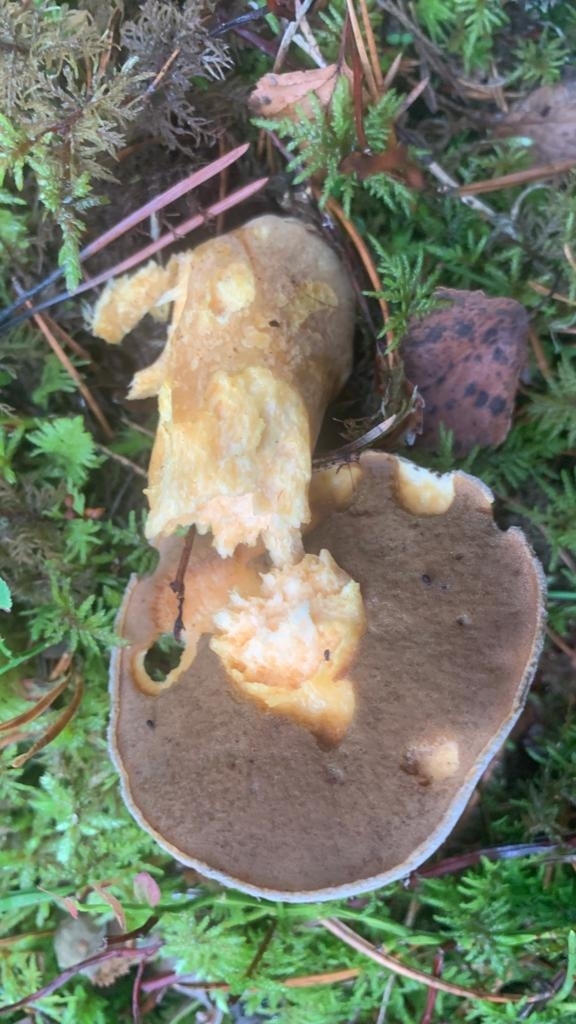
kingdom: Fungi
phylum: Basidiomycota
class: Agaricomycetes
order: Boletales
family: Suillaceae
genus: Suillus
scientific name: Suillus variegatus
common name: Velvet bolete
